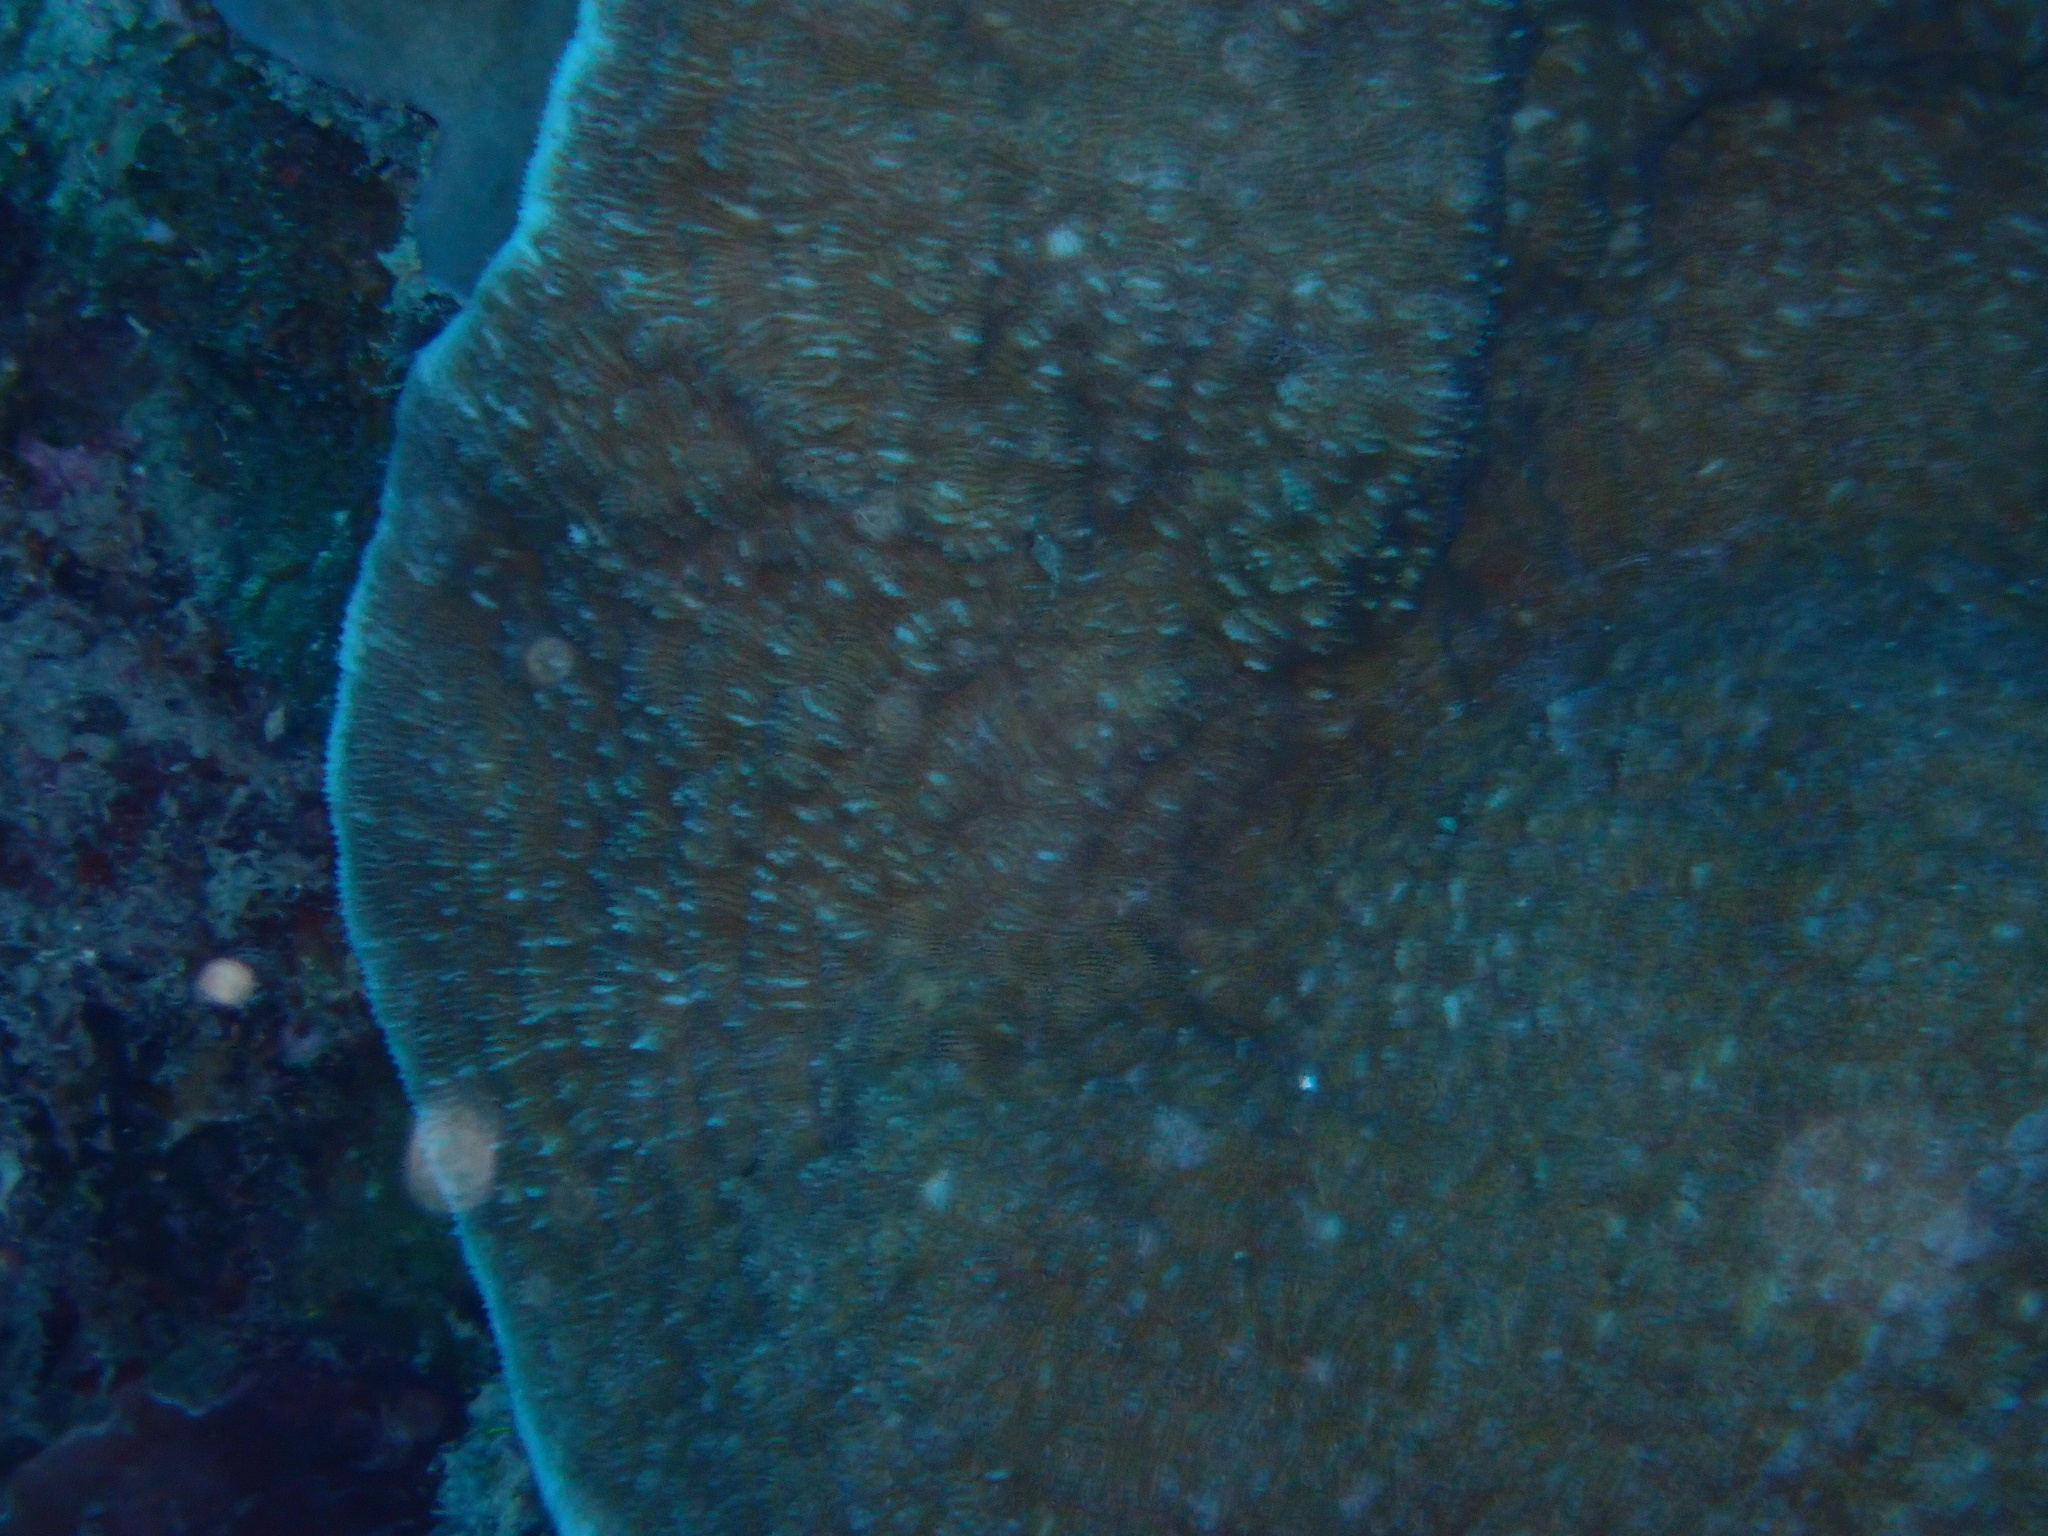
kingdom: Animalia
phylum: Cnidaria
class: Anthozoa
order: Scleractinia
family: Fungiidae
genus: Podabacia
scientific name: Podabacia sinai
